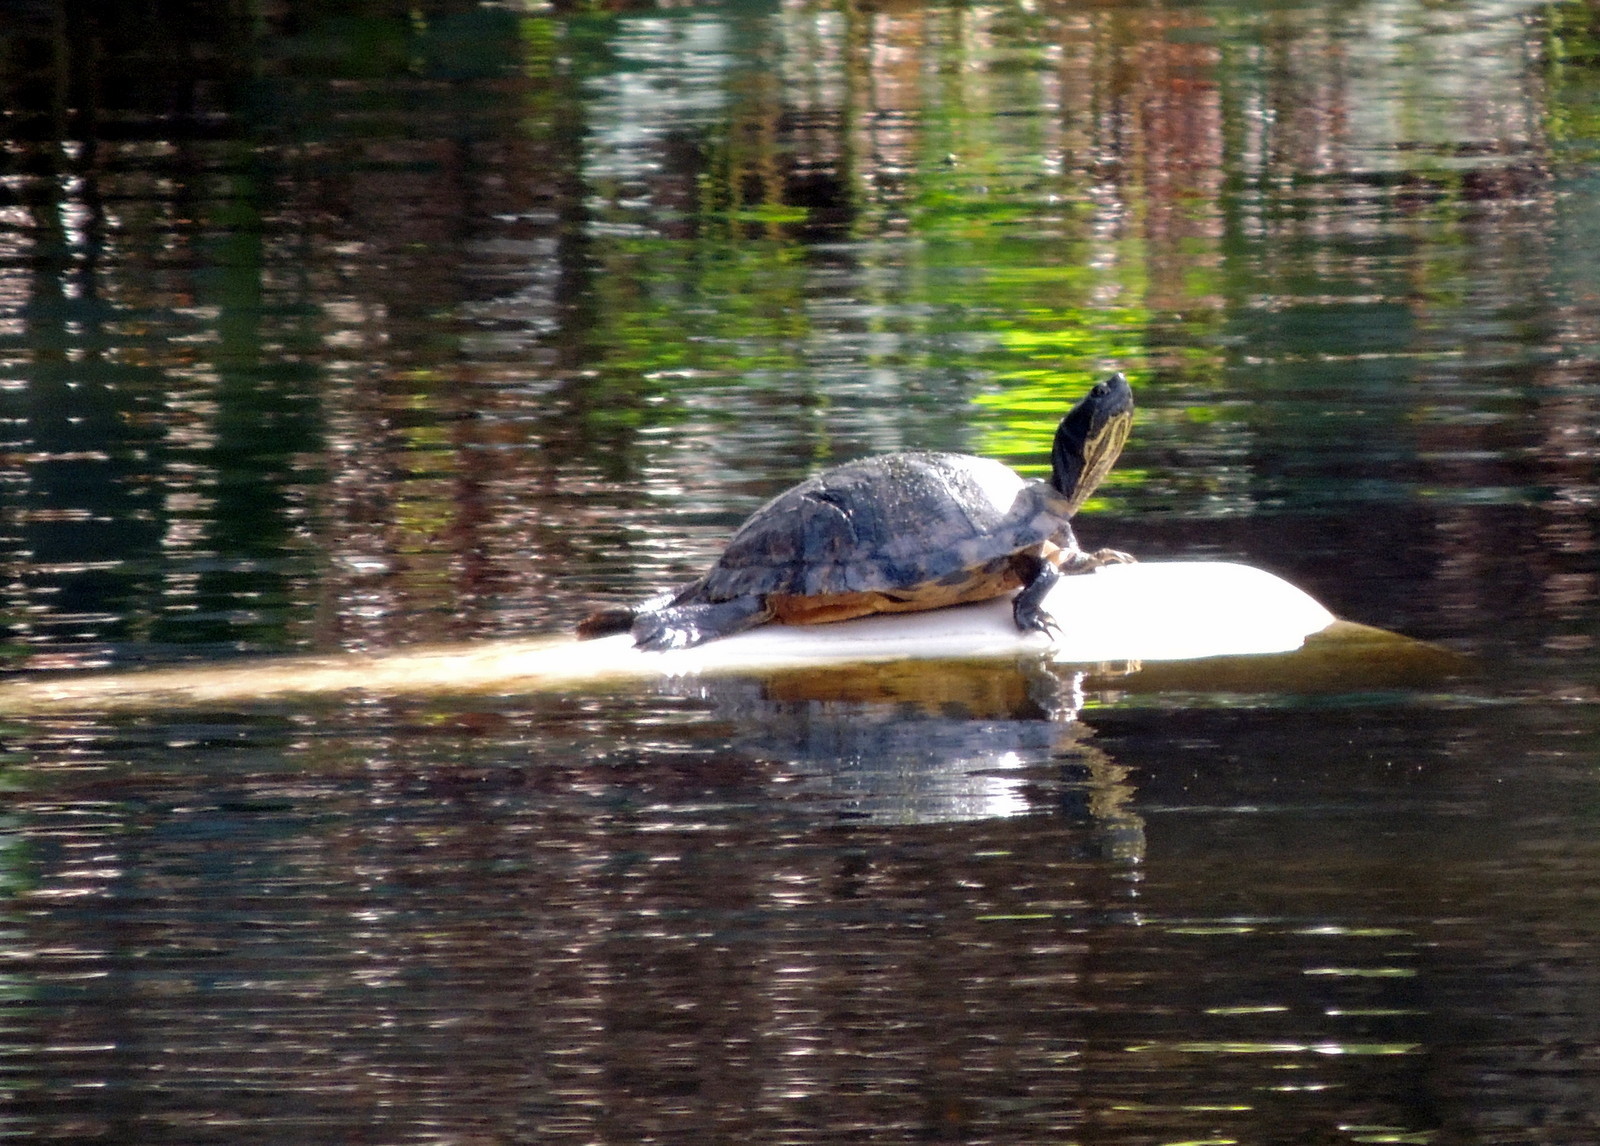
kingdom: Animalia
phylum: Chordata
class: Testudines
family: Emydidae
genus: Trachemys
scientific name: Trachemys scripta
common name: Slider
